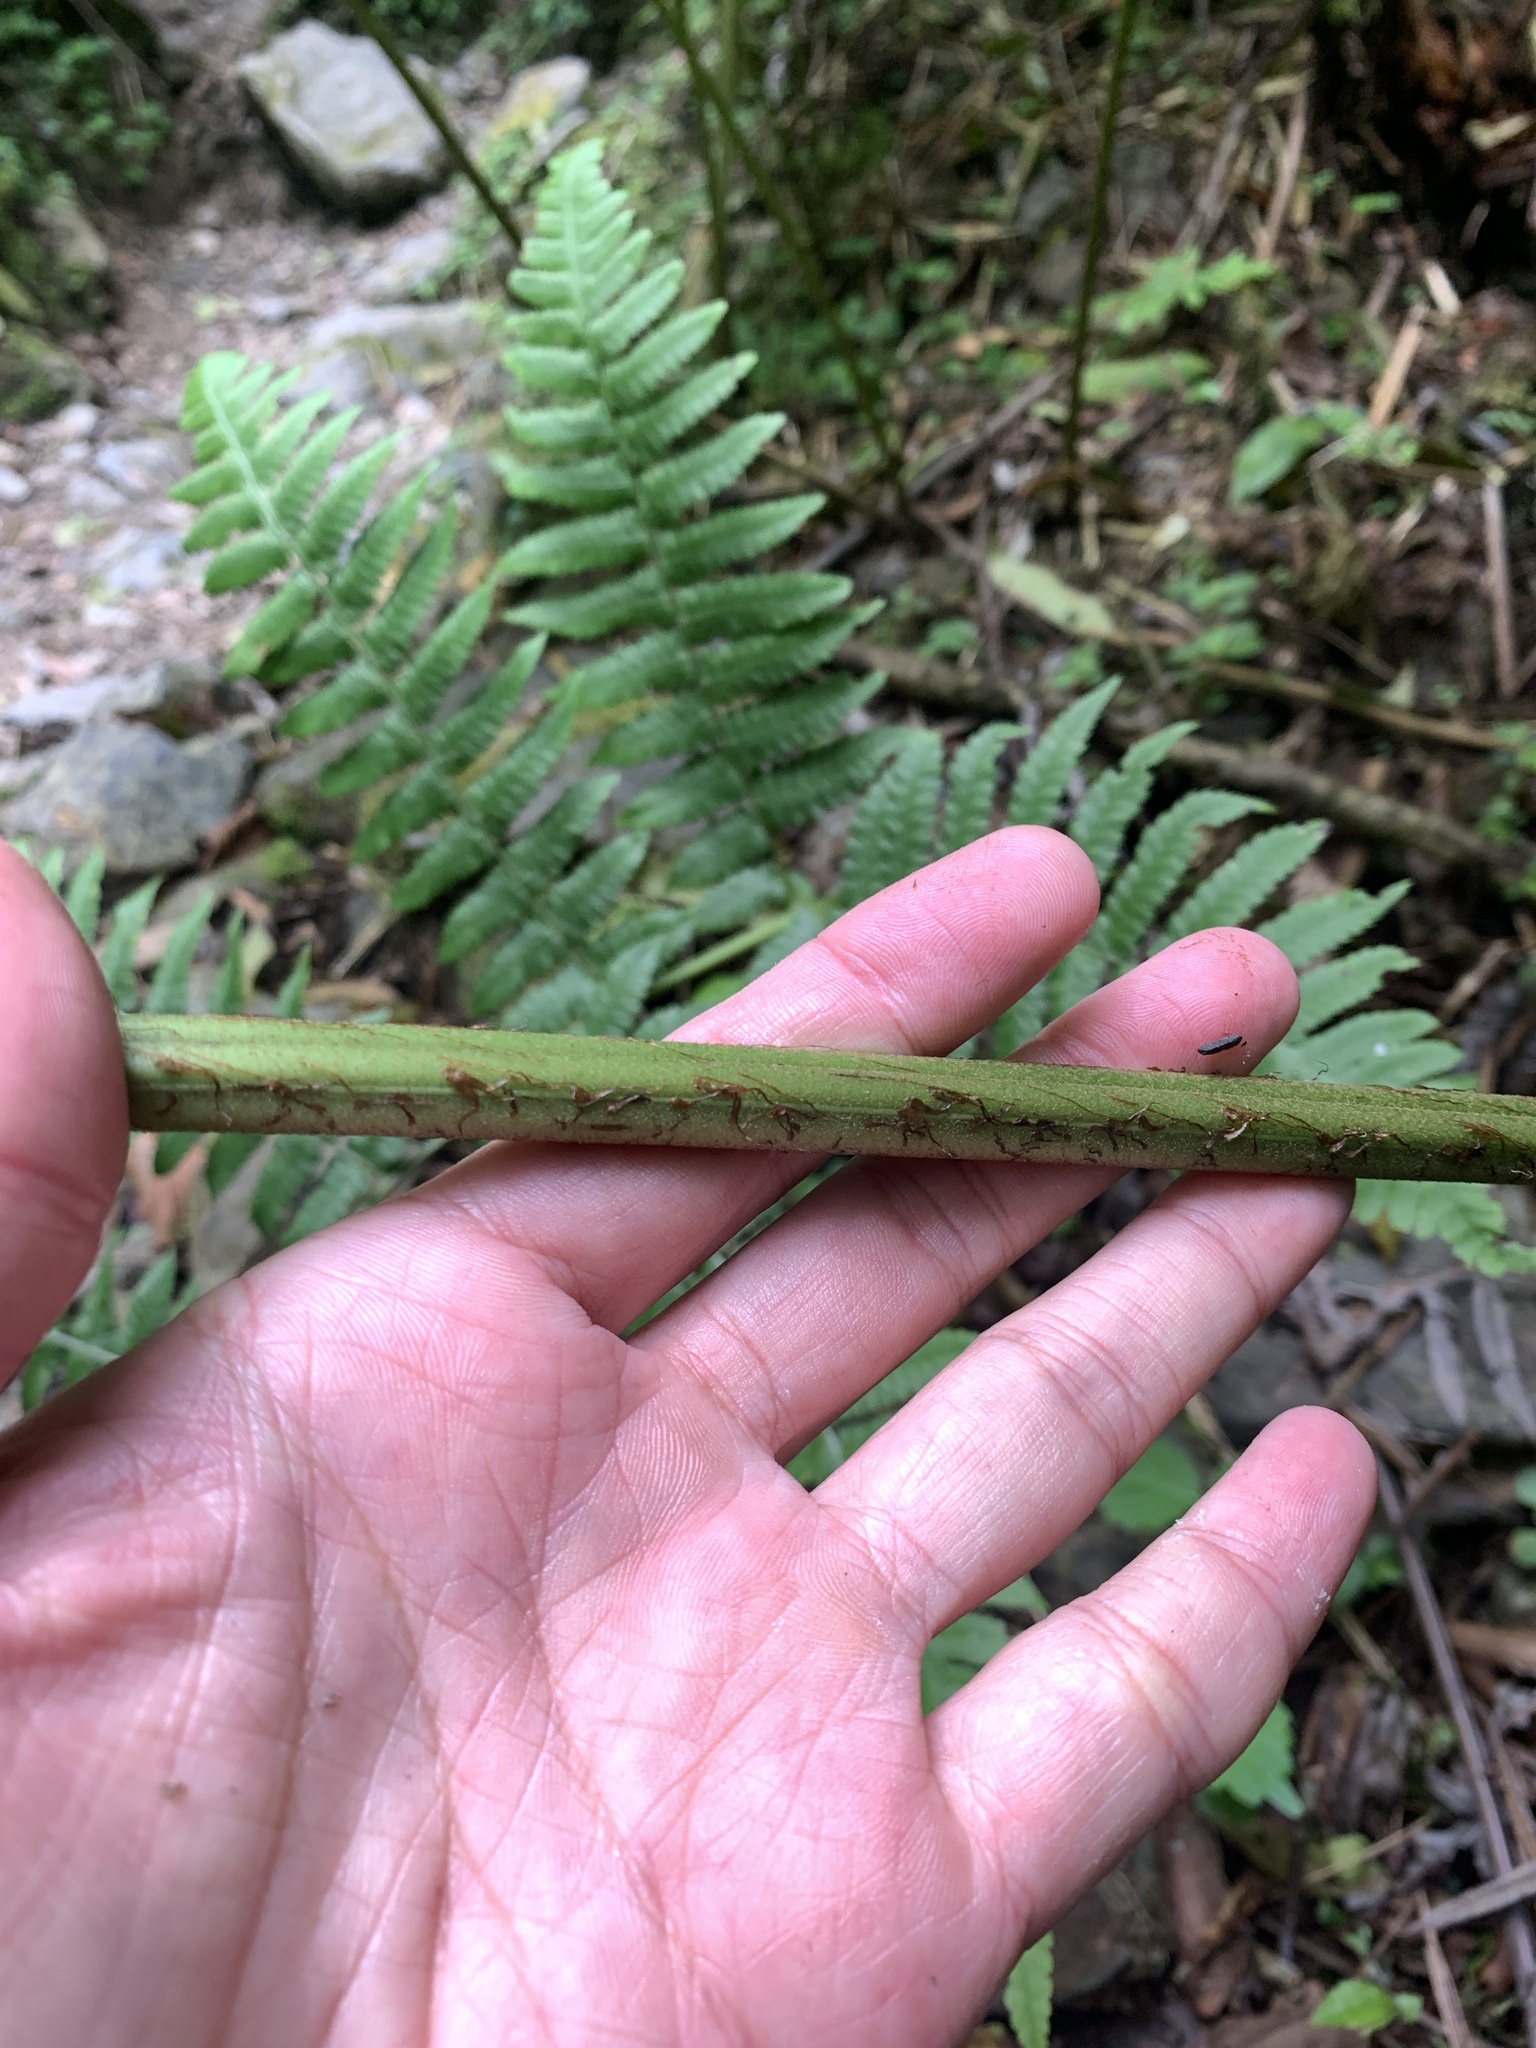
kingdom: Plantae
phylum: Tracheophyta
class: Polypodiopsida
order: Polypodiales
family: Athyriaceae
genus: Diplazium
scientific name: Diplazium maximum
